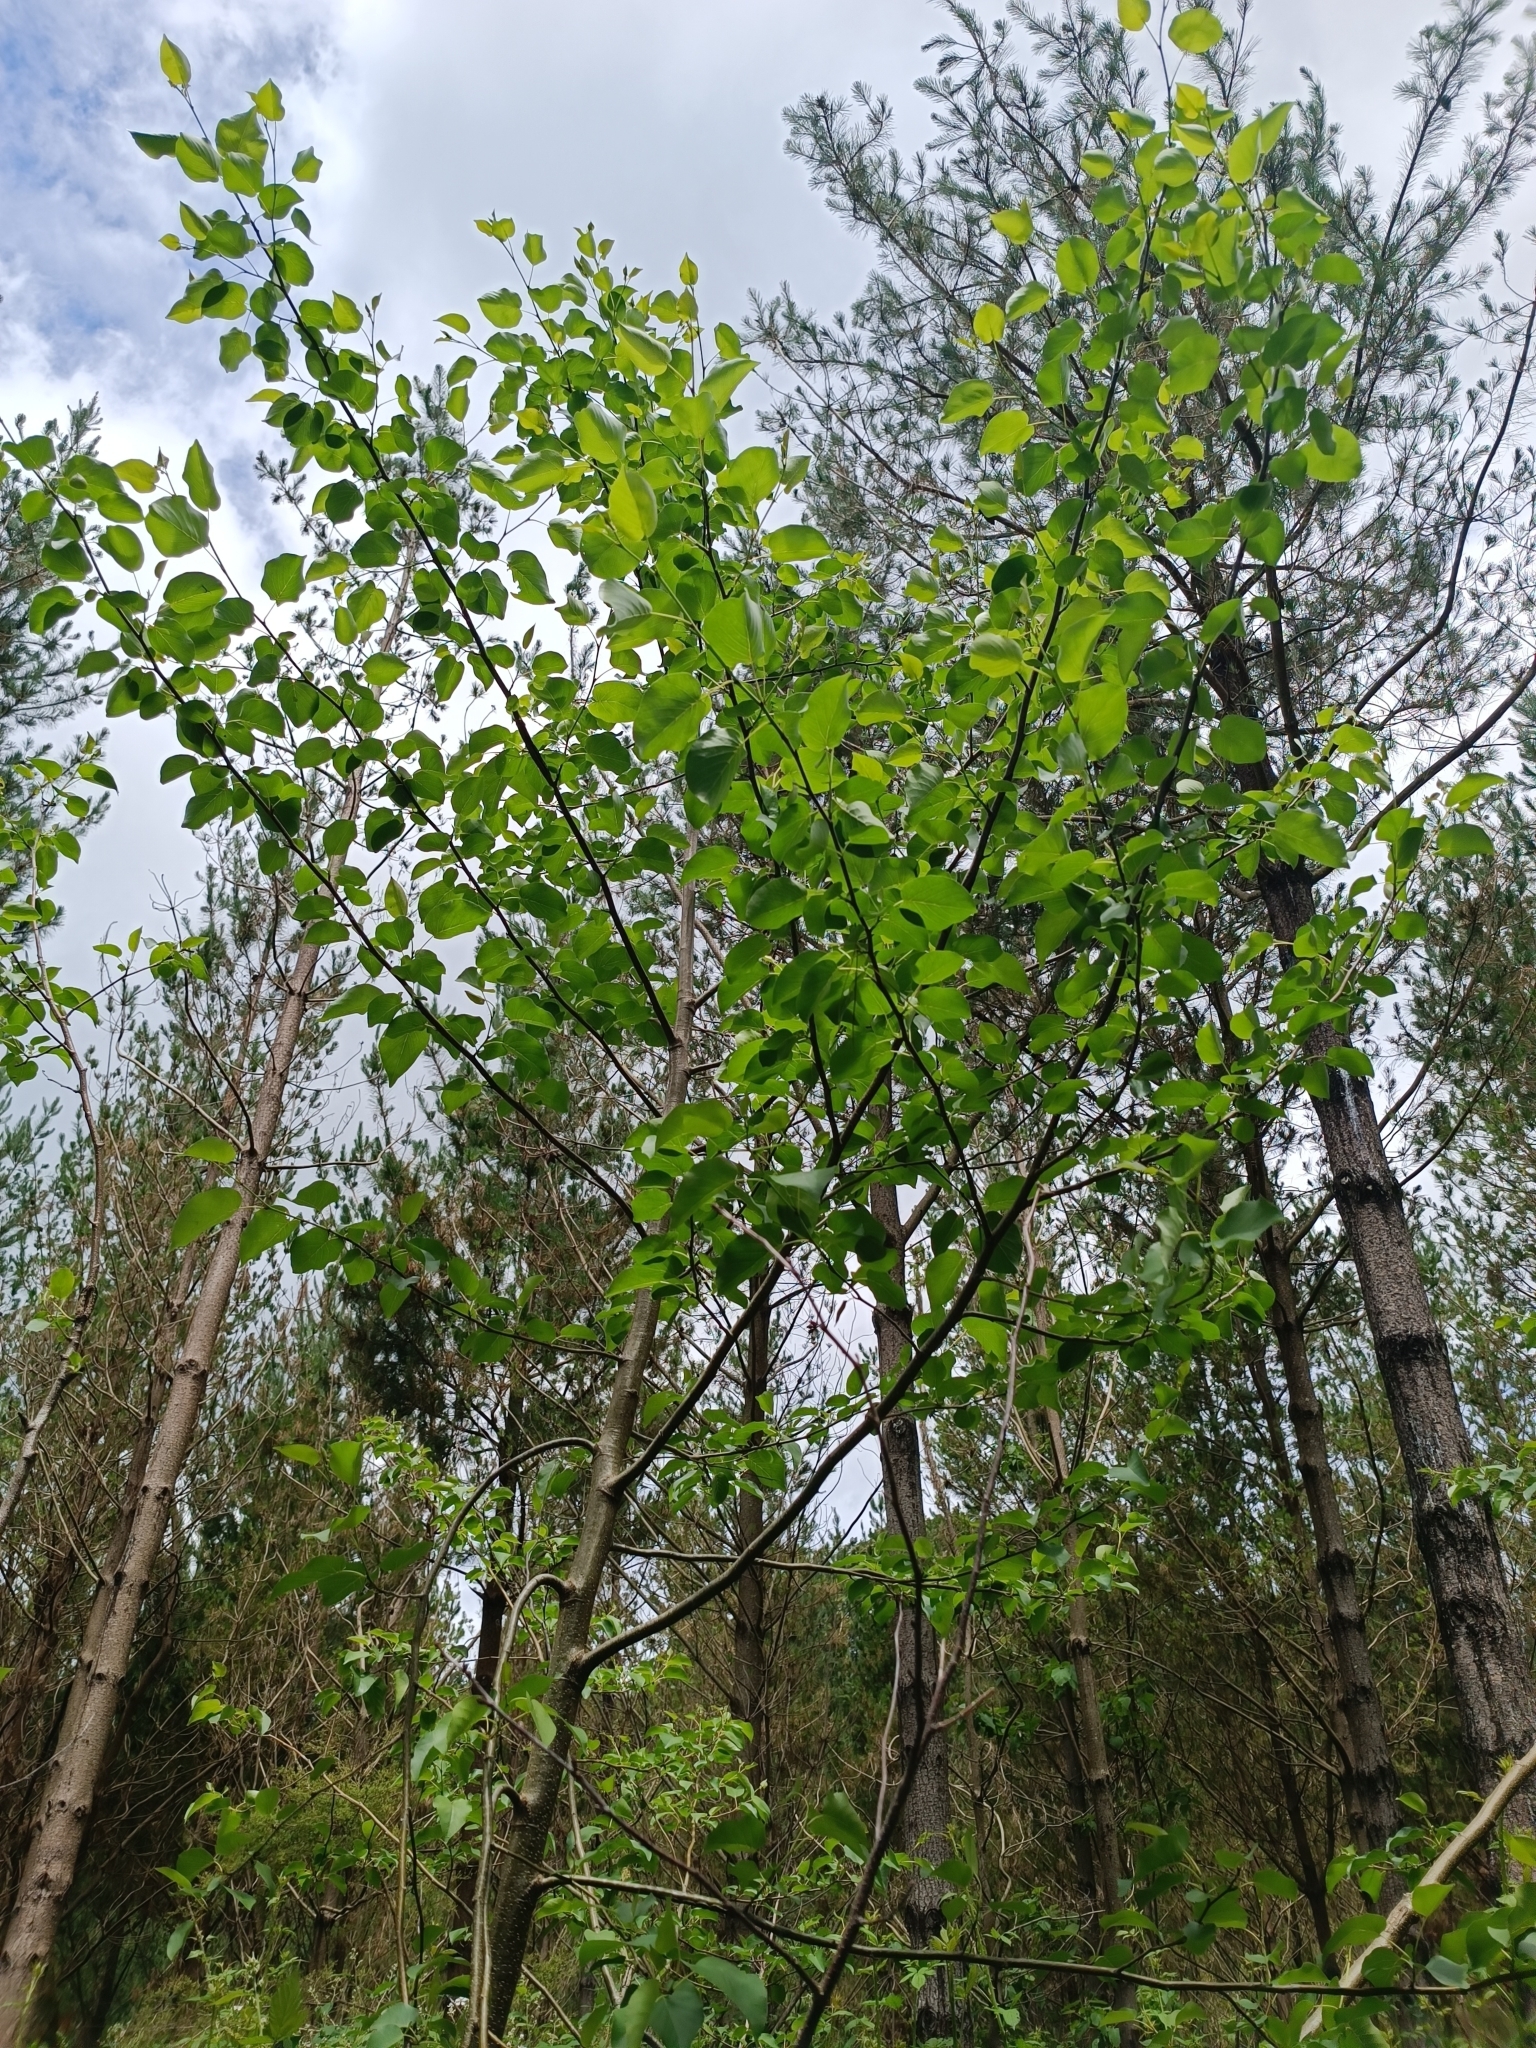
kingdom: Plantae
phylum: Tracheophyta
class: Magnoliopsida
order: Fagales
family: Betulaceae
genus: Alnus
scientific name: Alnus cordata
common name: Italian alder
